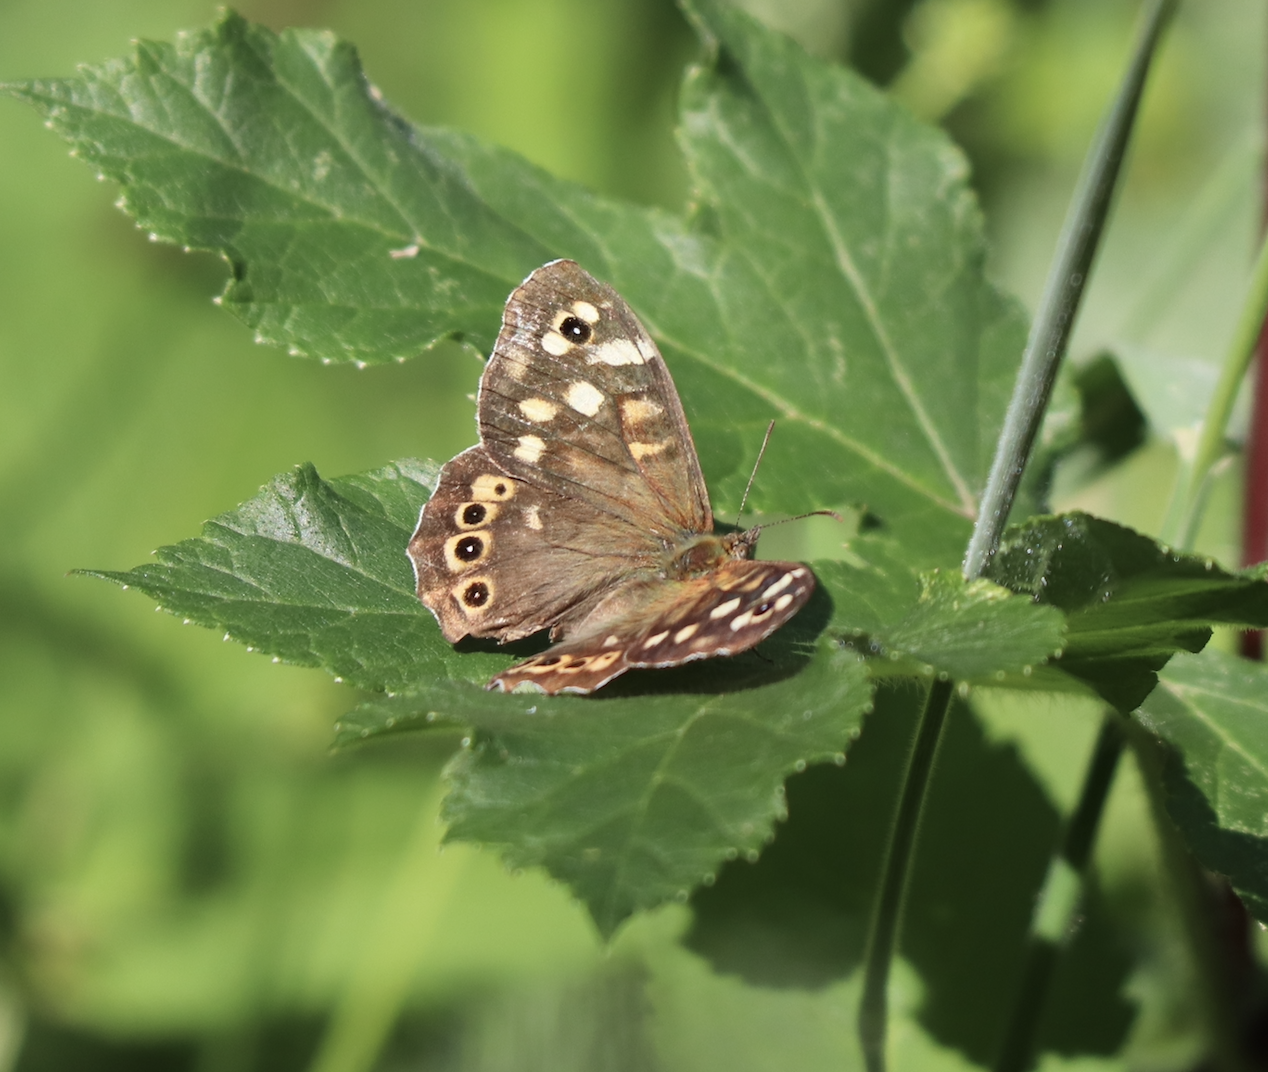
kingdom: Animalia
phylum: Arthropoda
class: Insecta
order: Lepidoptera
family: Nymphalidae
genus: Pararge
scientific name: Pararge aegeria
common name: Speckled wood
